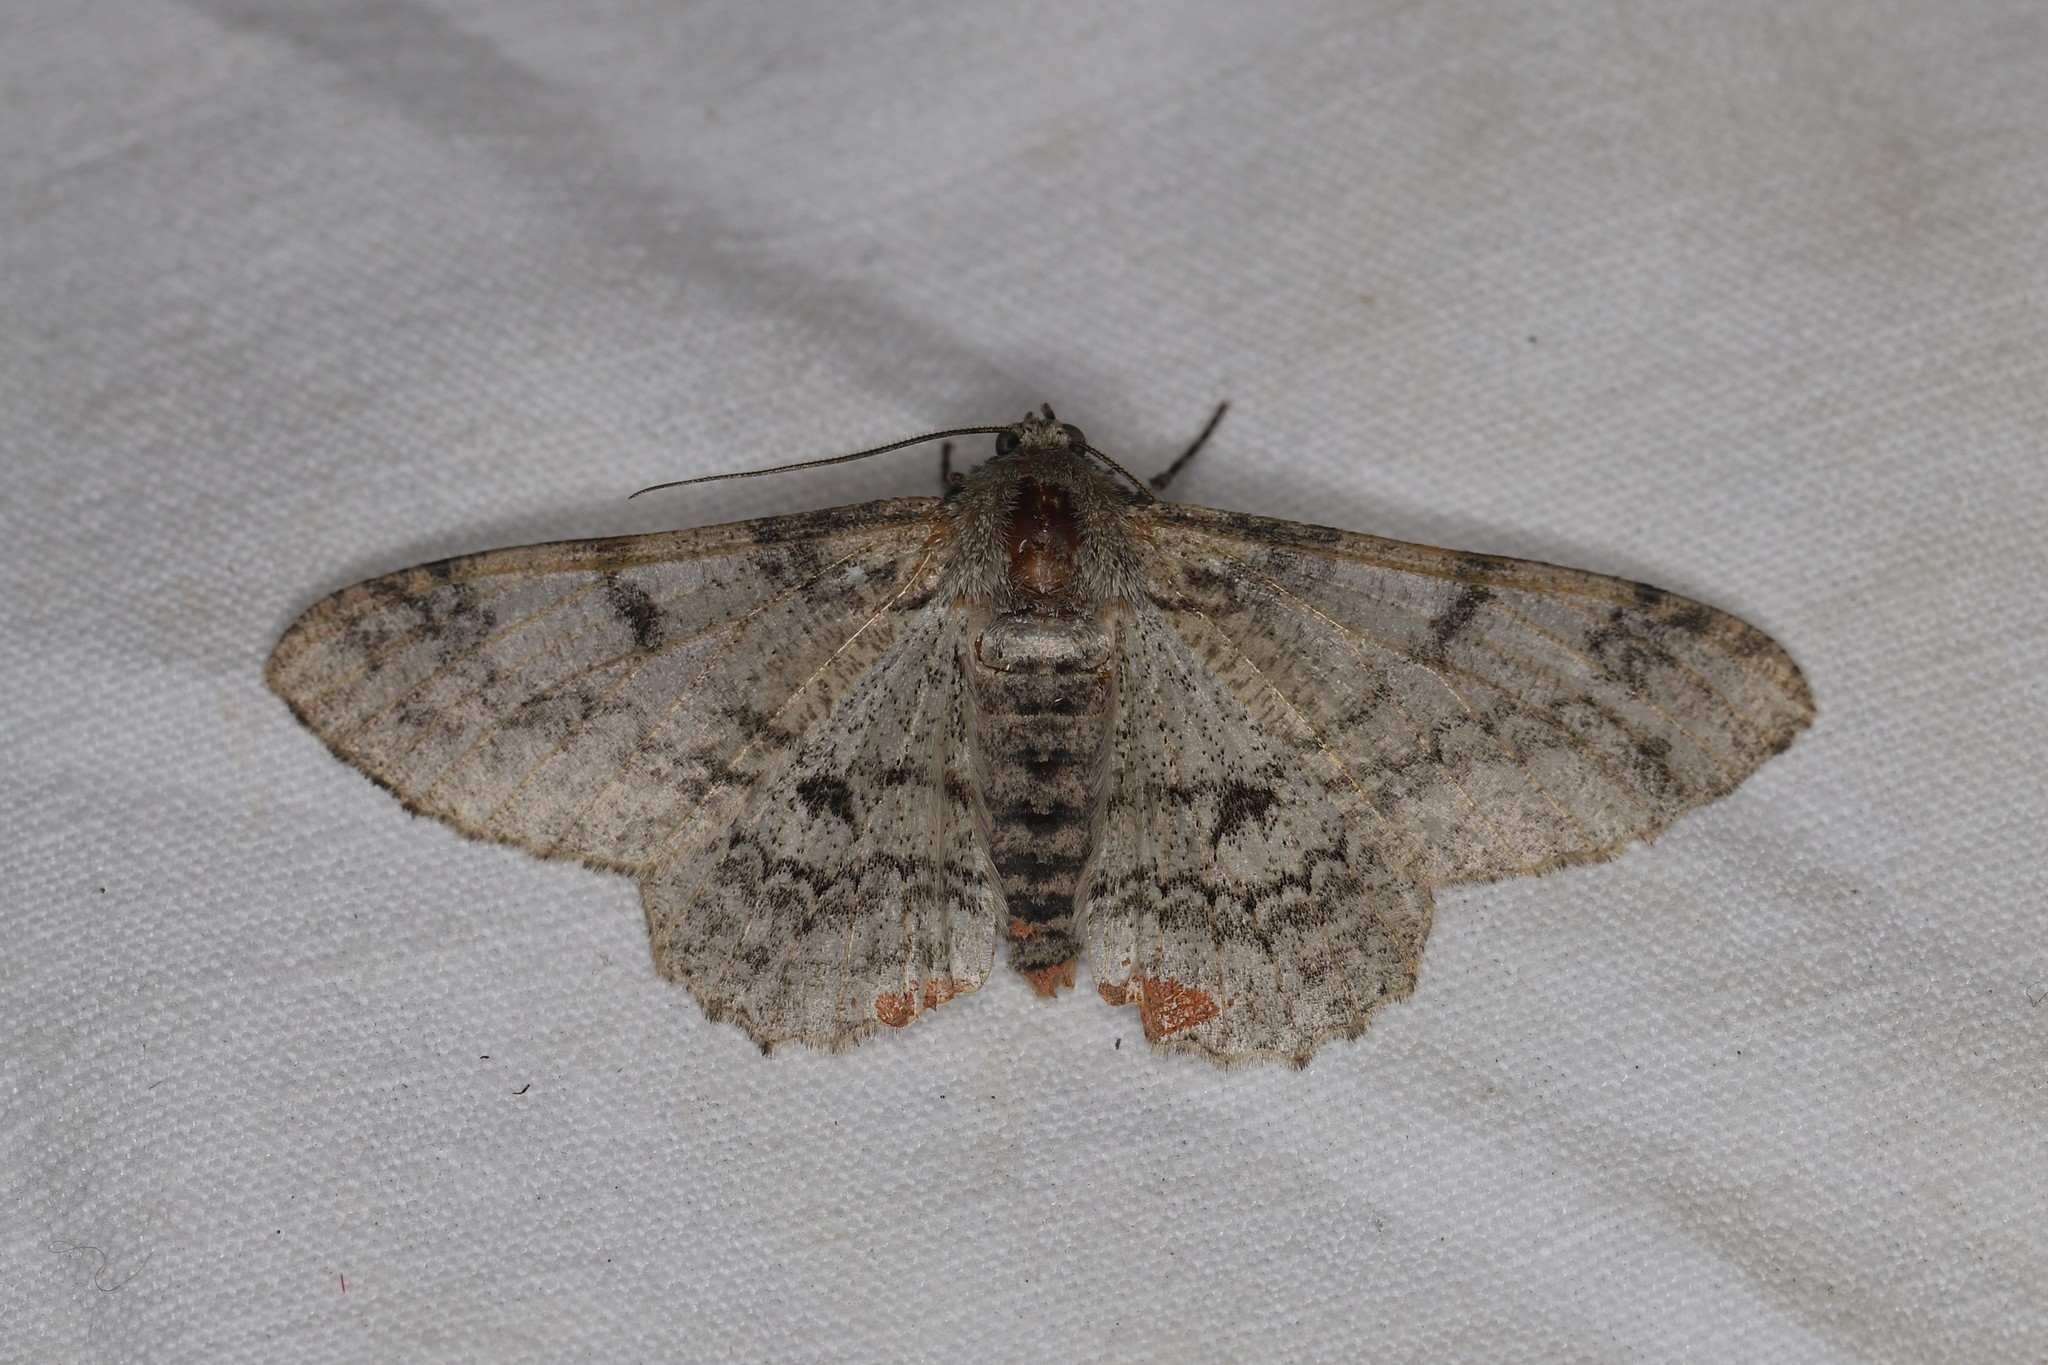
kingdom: Animalia
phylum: Arthropoda
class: Insecta
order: Lepidoptera
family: Geometridae
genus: Ascotis
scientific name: Ascotis selenaria
